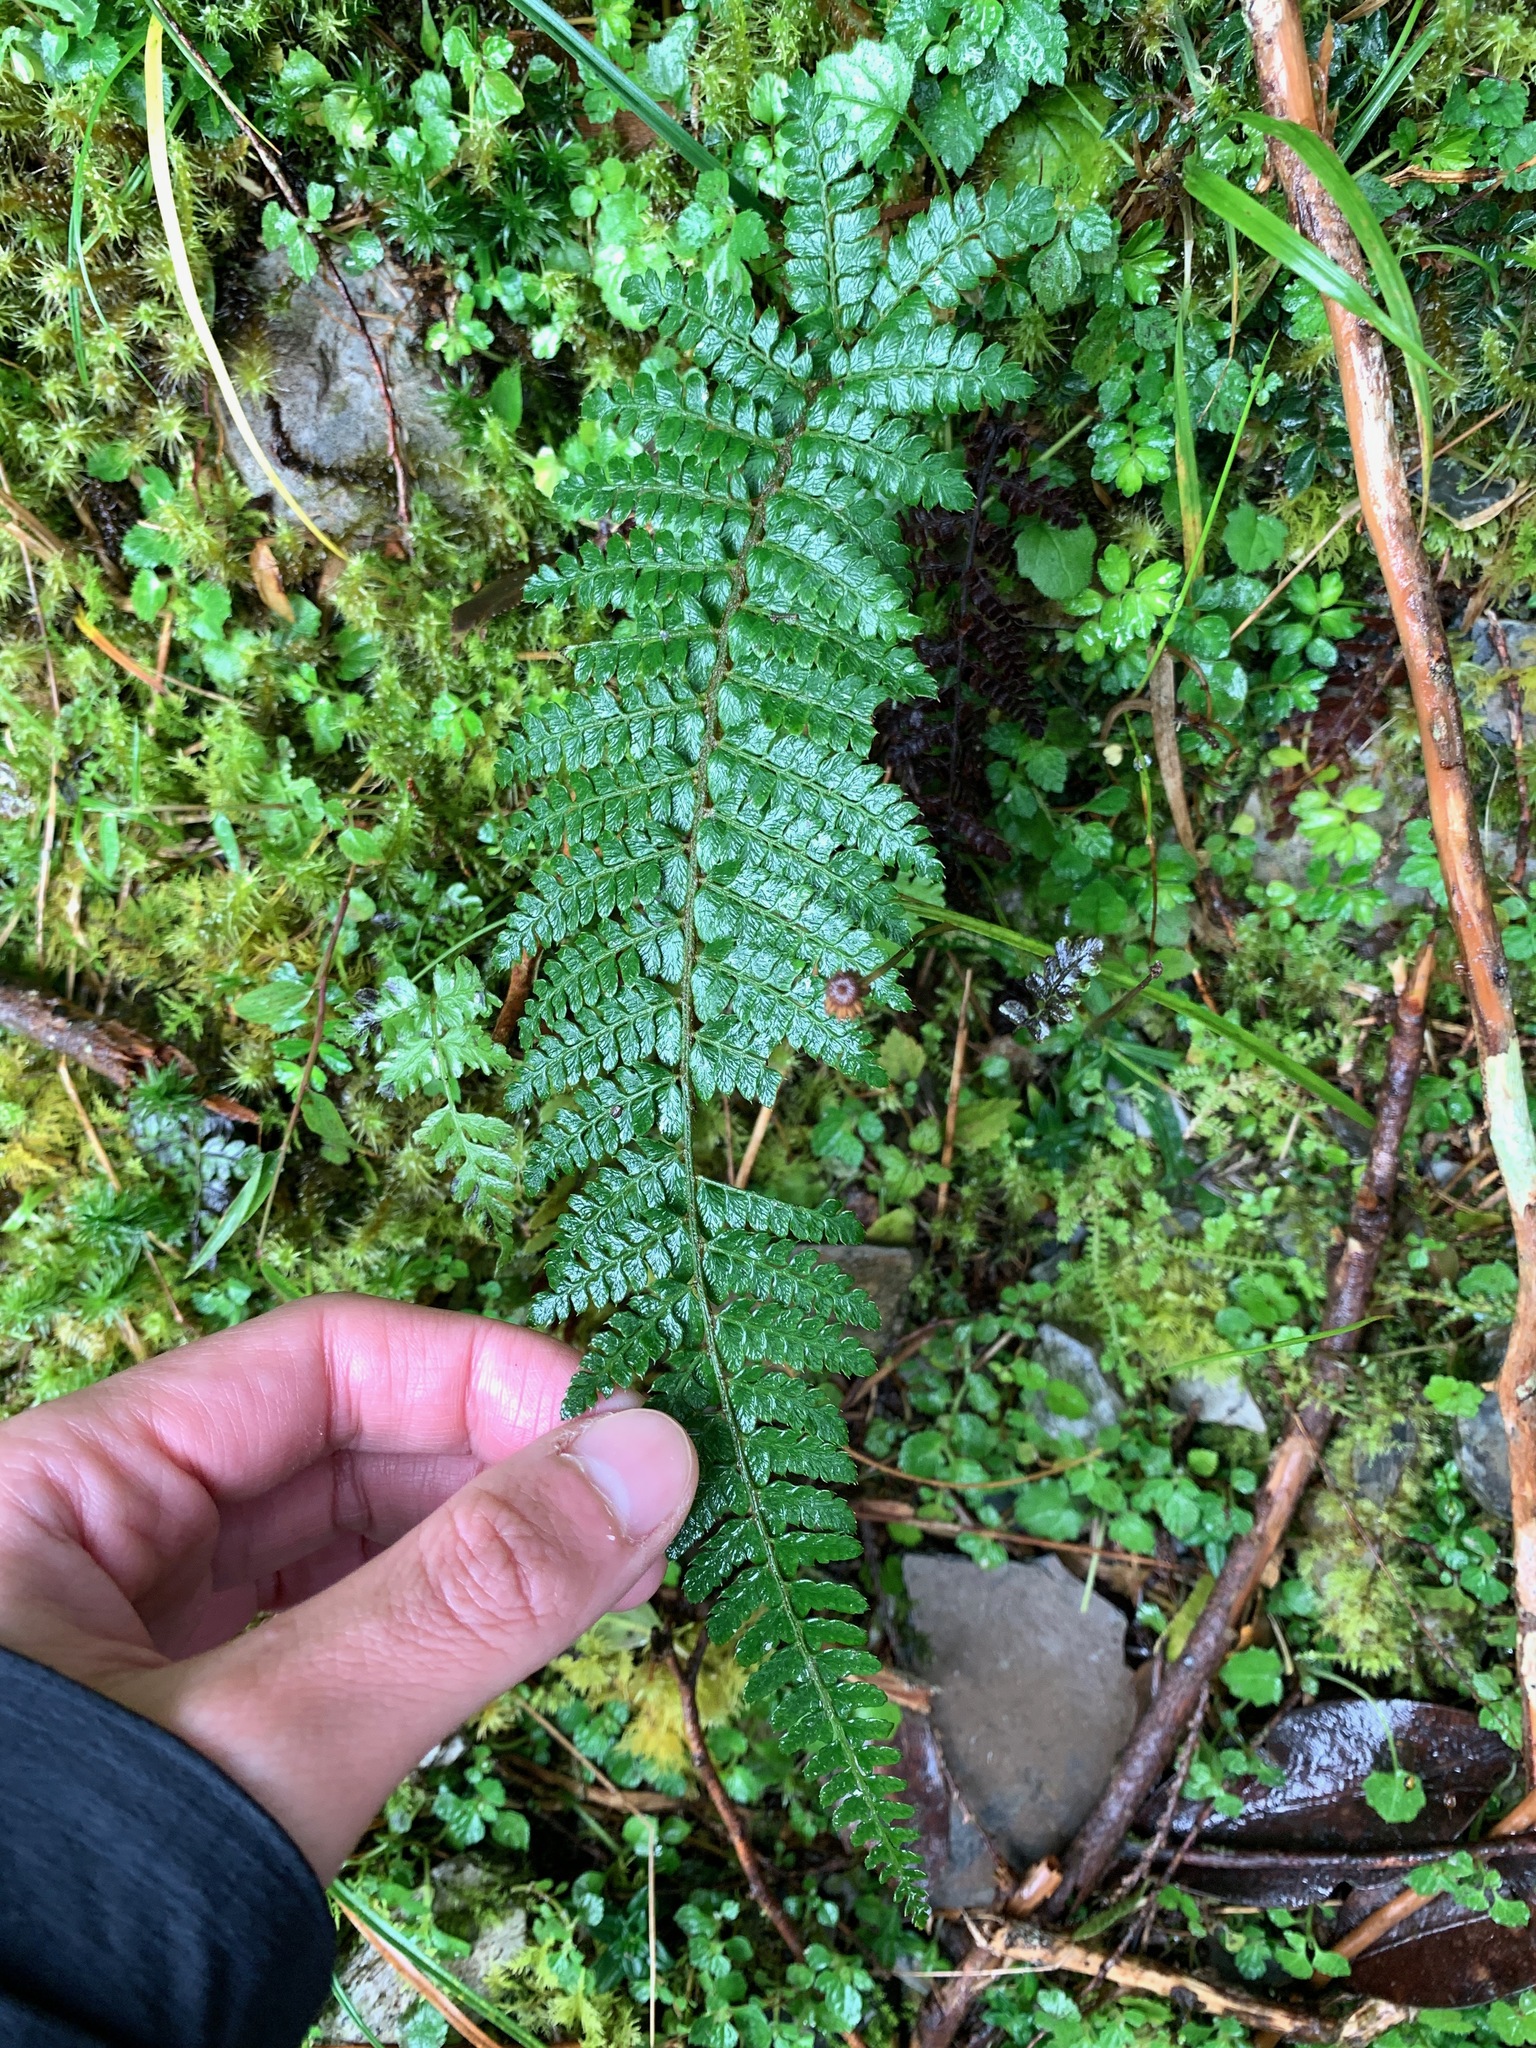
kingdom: Plantae
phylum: Tracheophyta
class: Polypodiopsida
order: Polypodiales
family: Dryopteridaceae
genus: Polystichum
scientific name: Polystichum parvipinnulum
